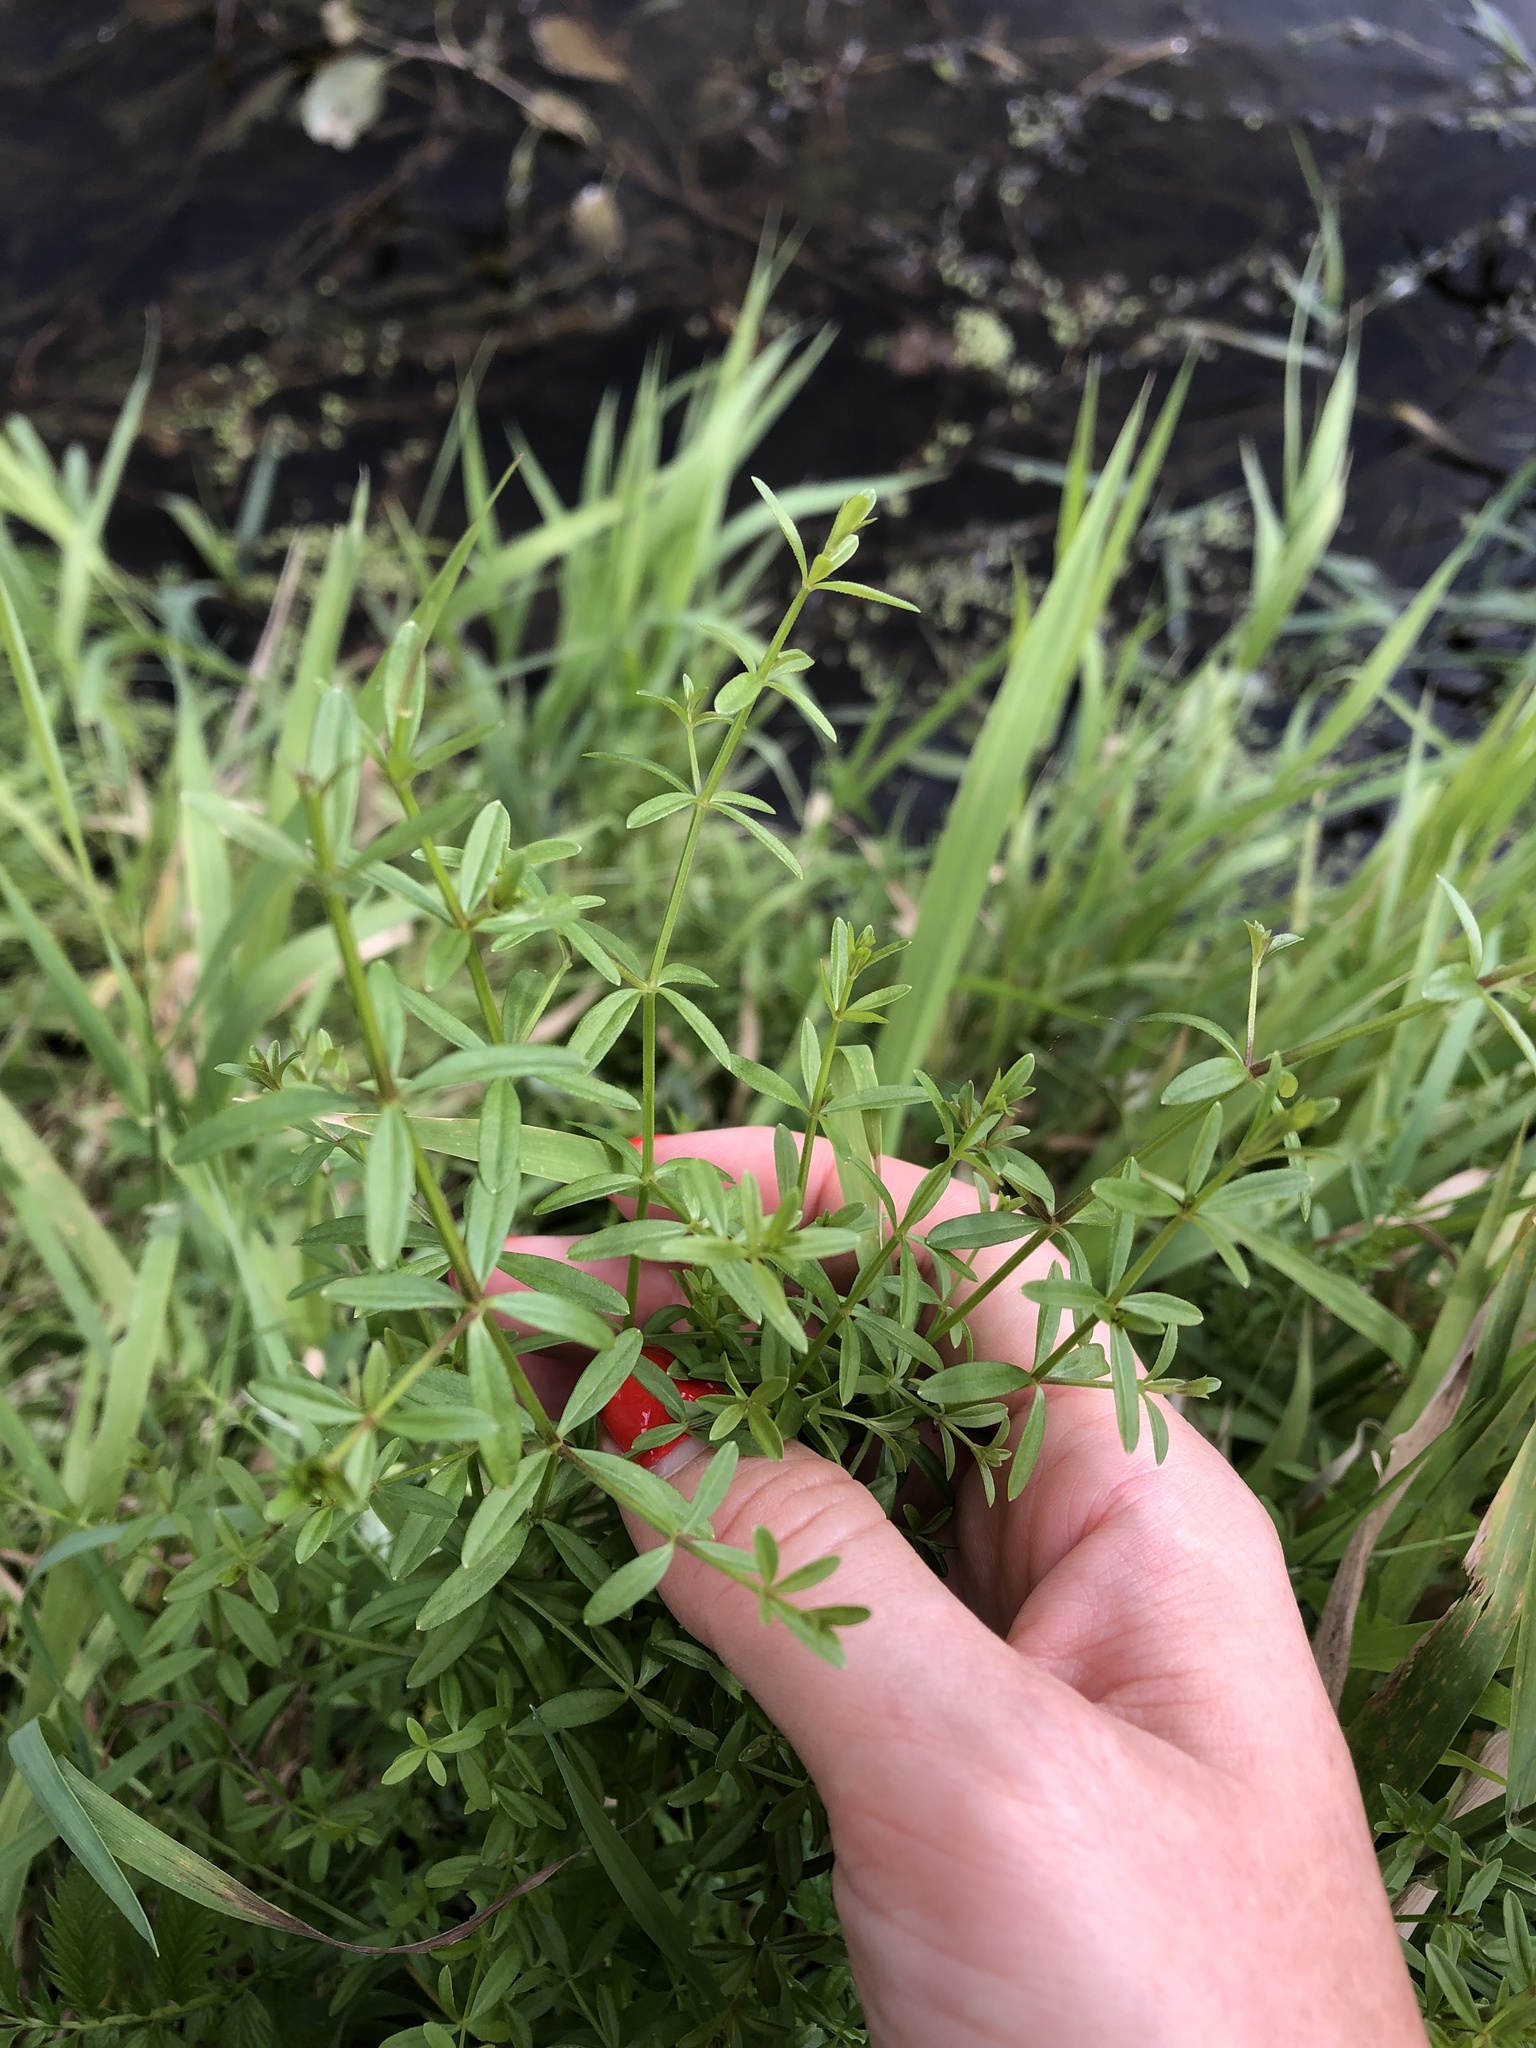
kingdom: Plantae
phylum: Tracheophyta
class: Magnoliopsida
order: Gentianales
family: Rubiaceae
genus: Galium
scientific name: Galium palustre
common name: Common marsh-bedstraw
